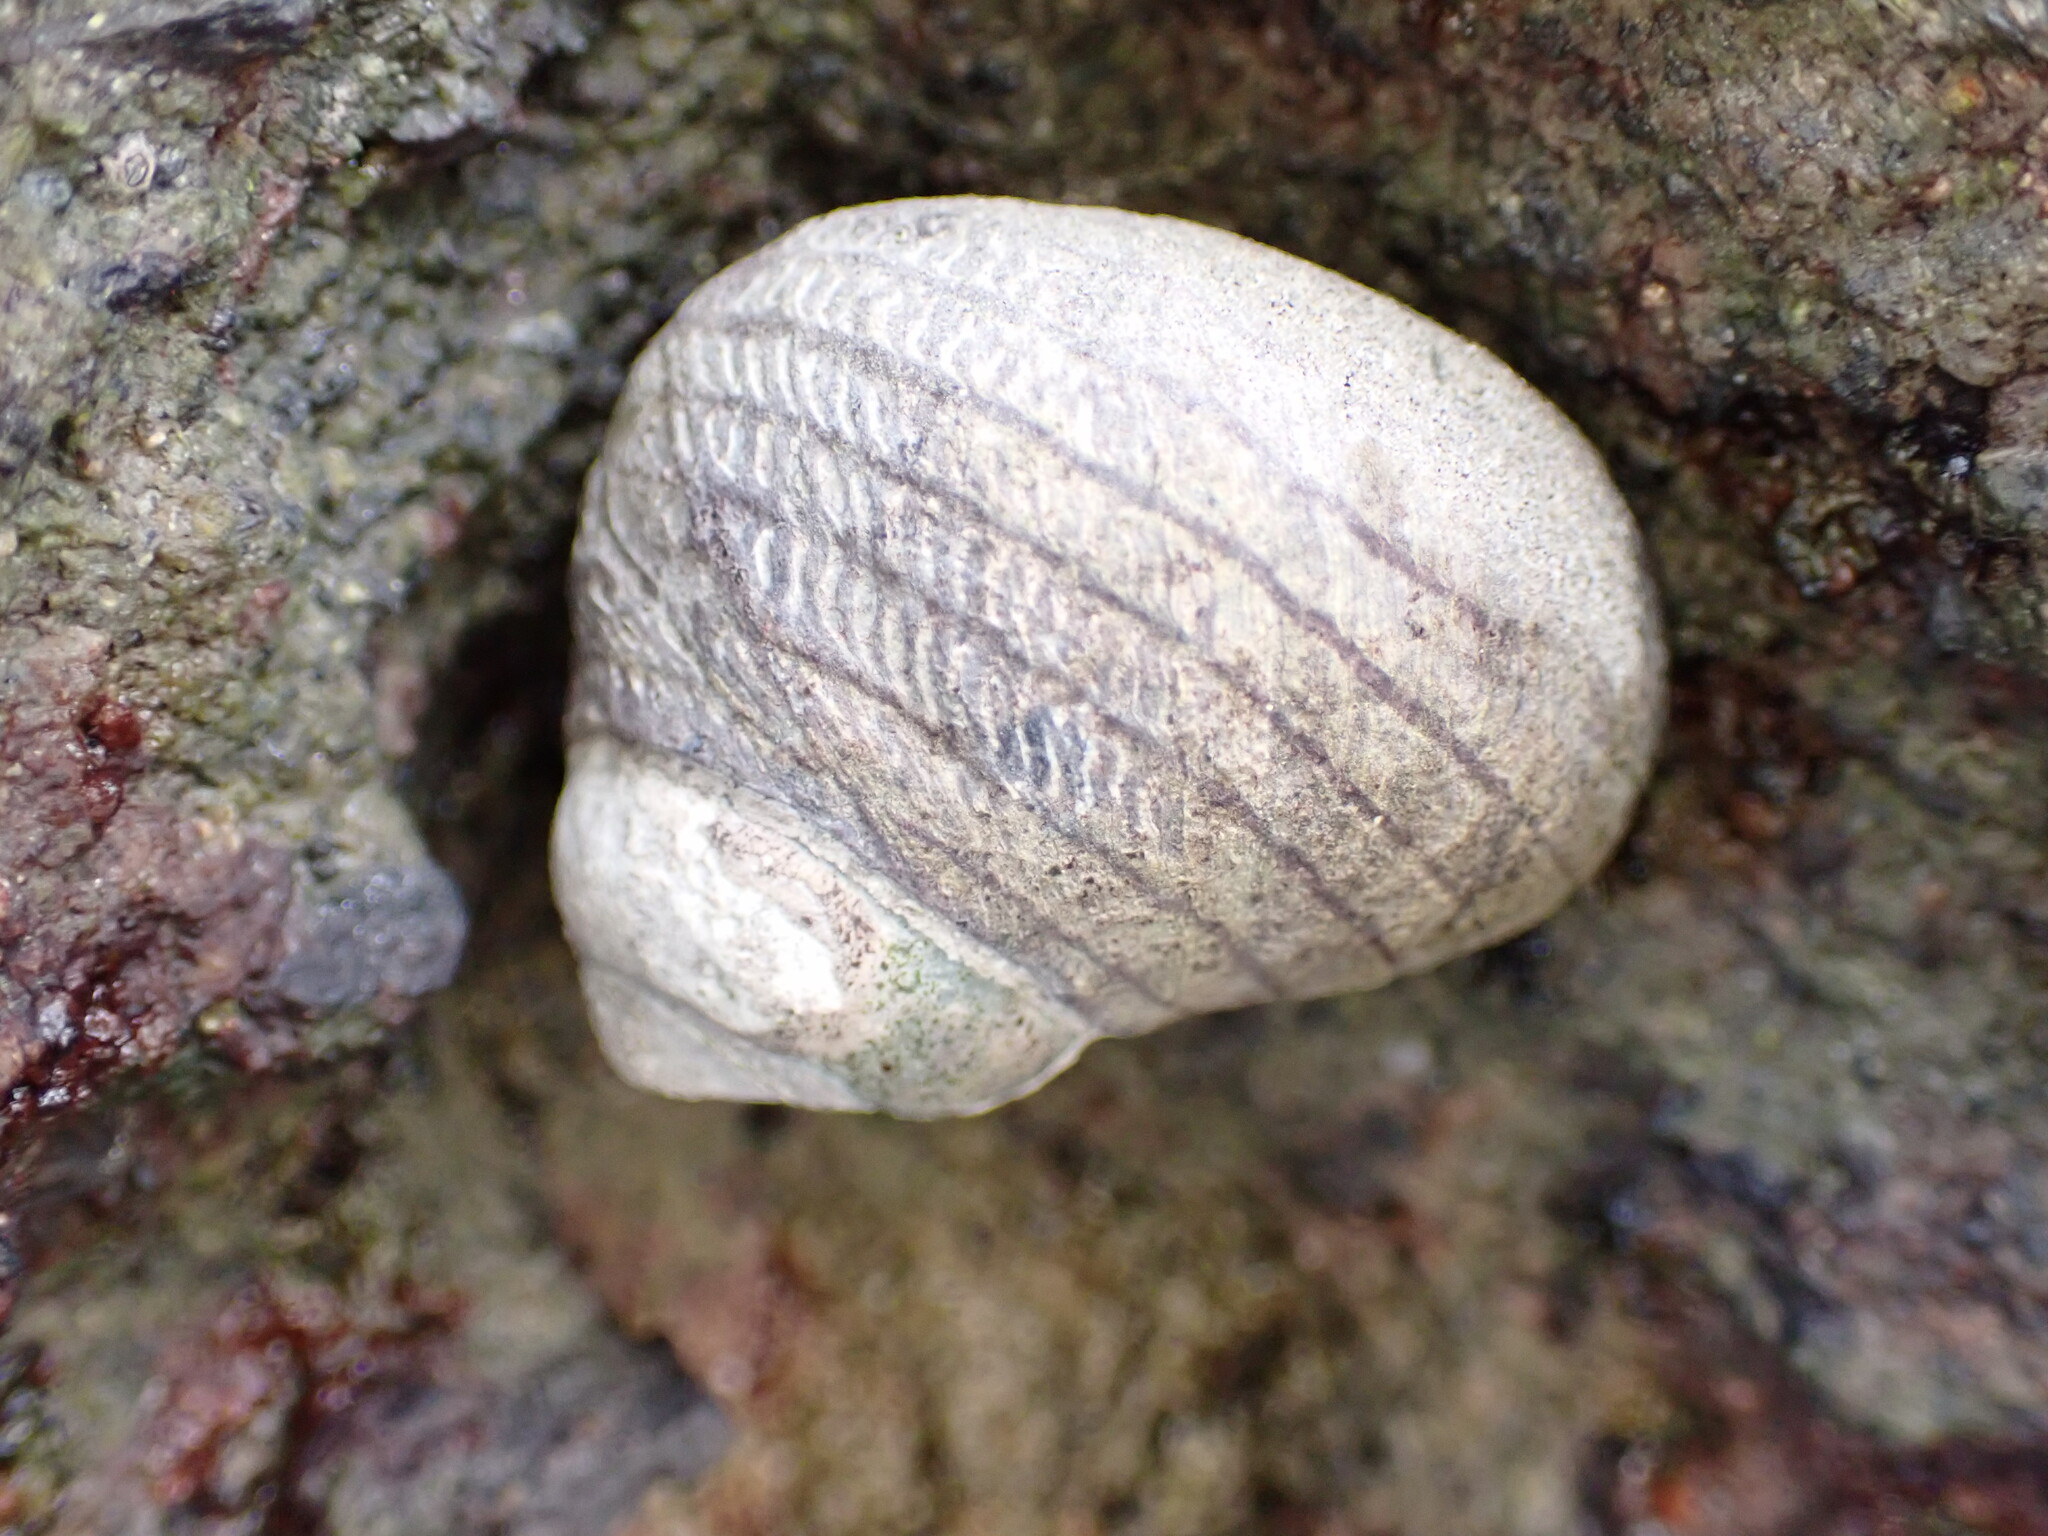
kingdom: Animalia
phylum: Mollusca
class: Gastropoda
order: Trochida
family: Trochidae
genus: Diloma
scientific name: Diloma aethiops
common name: Scorched monodont
